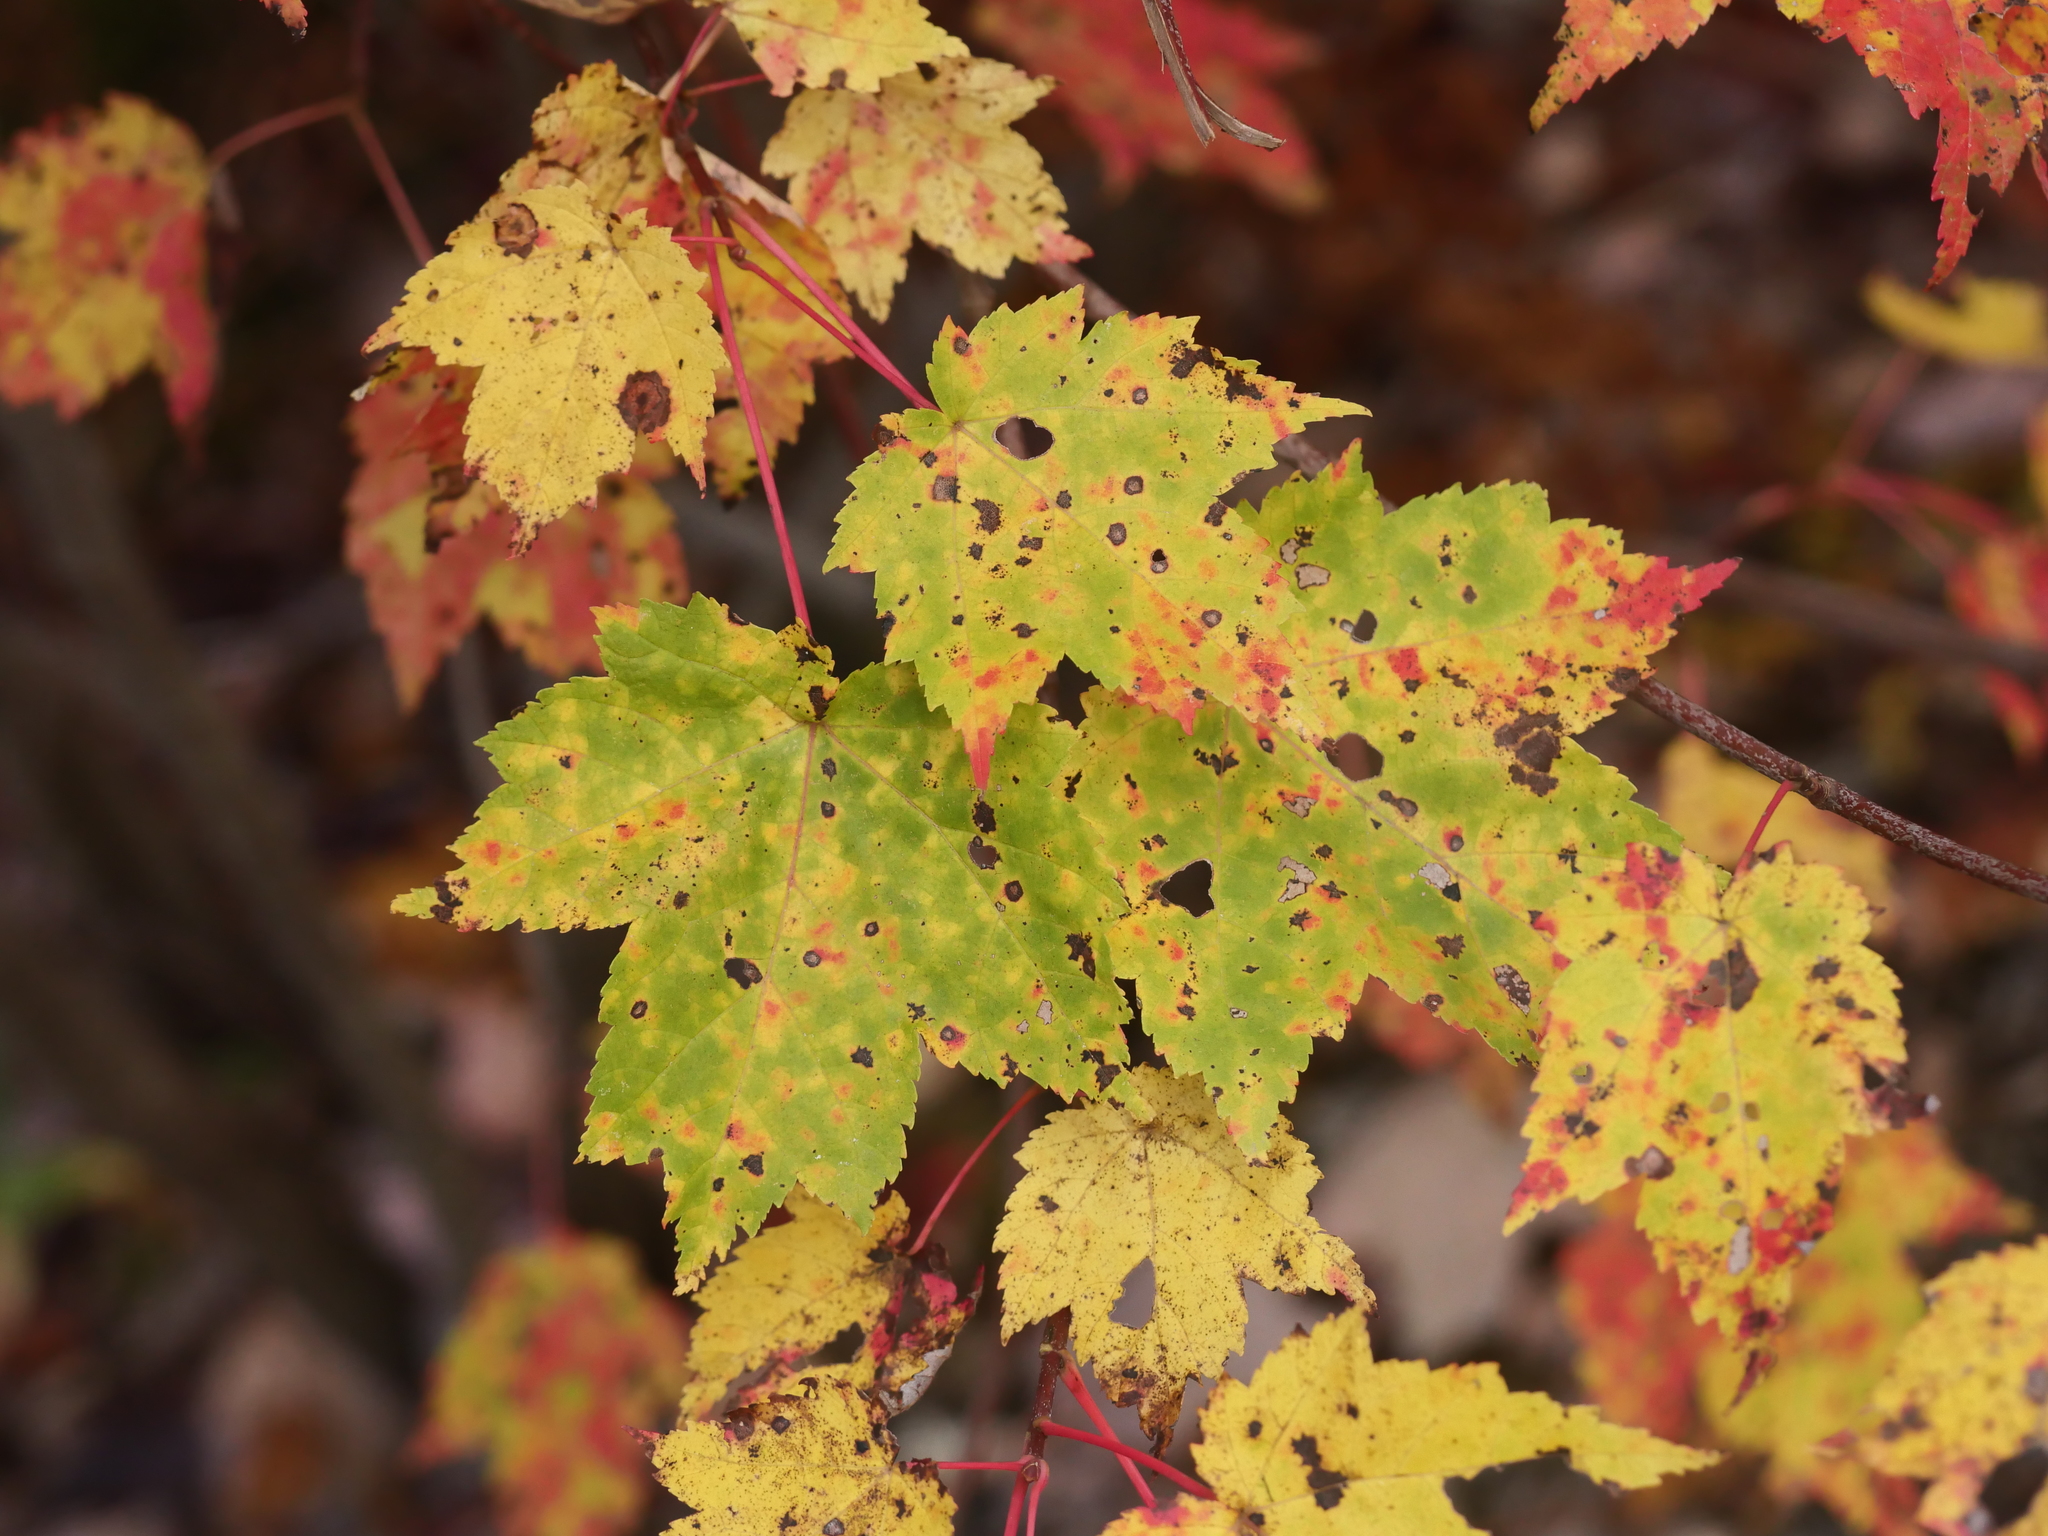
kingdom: Plantae
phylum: Tracheophyta
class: Magnoliopsida
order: Sapindales
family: Sapindaceae
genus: Acer
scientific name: Acer rubrum
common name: Red maple
